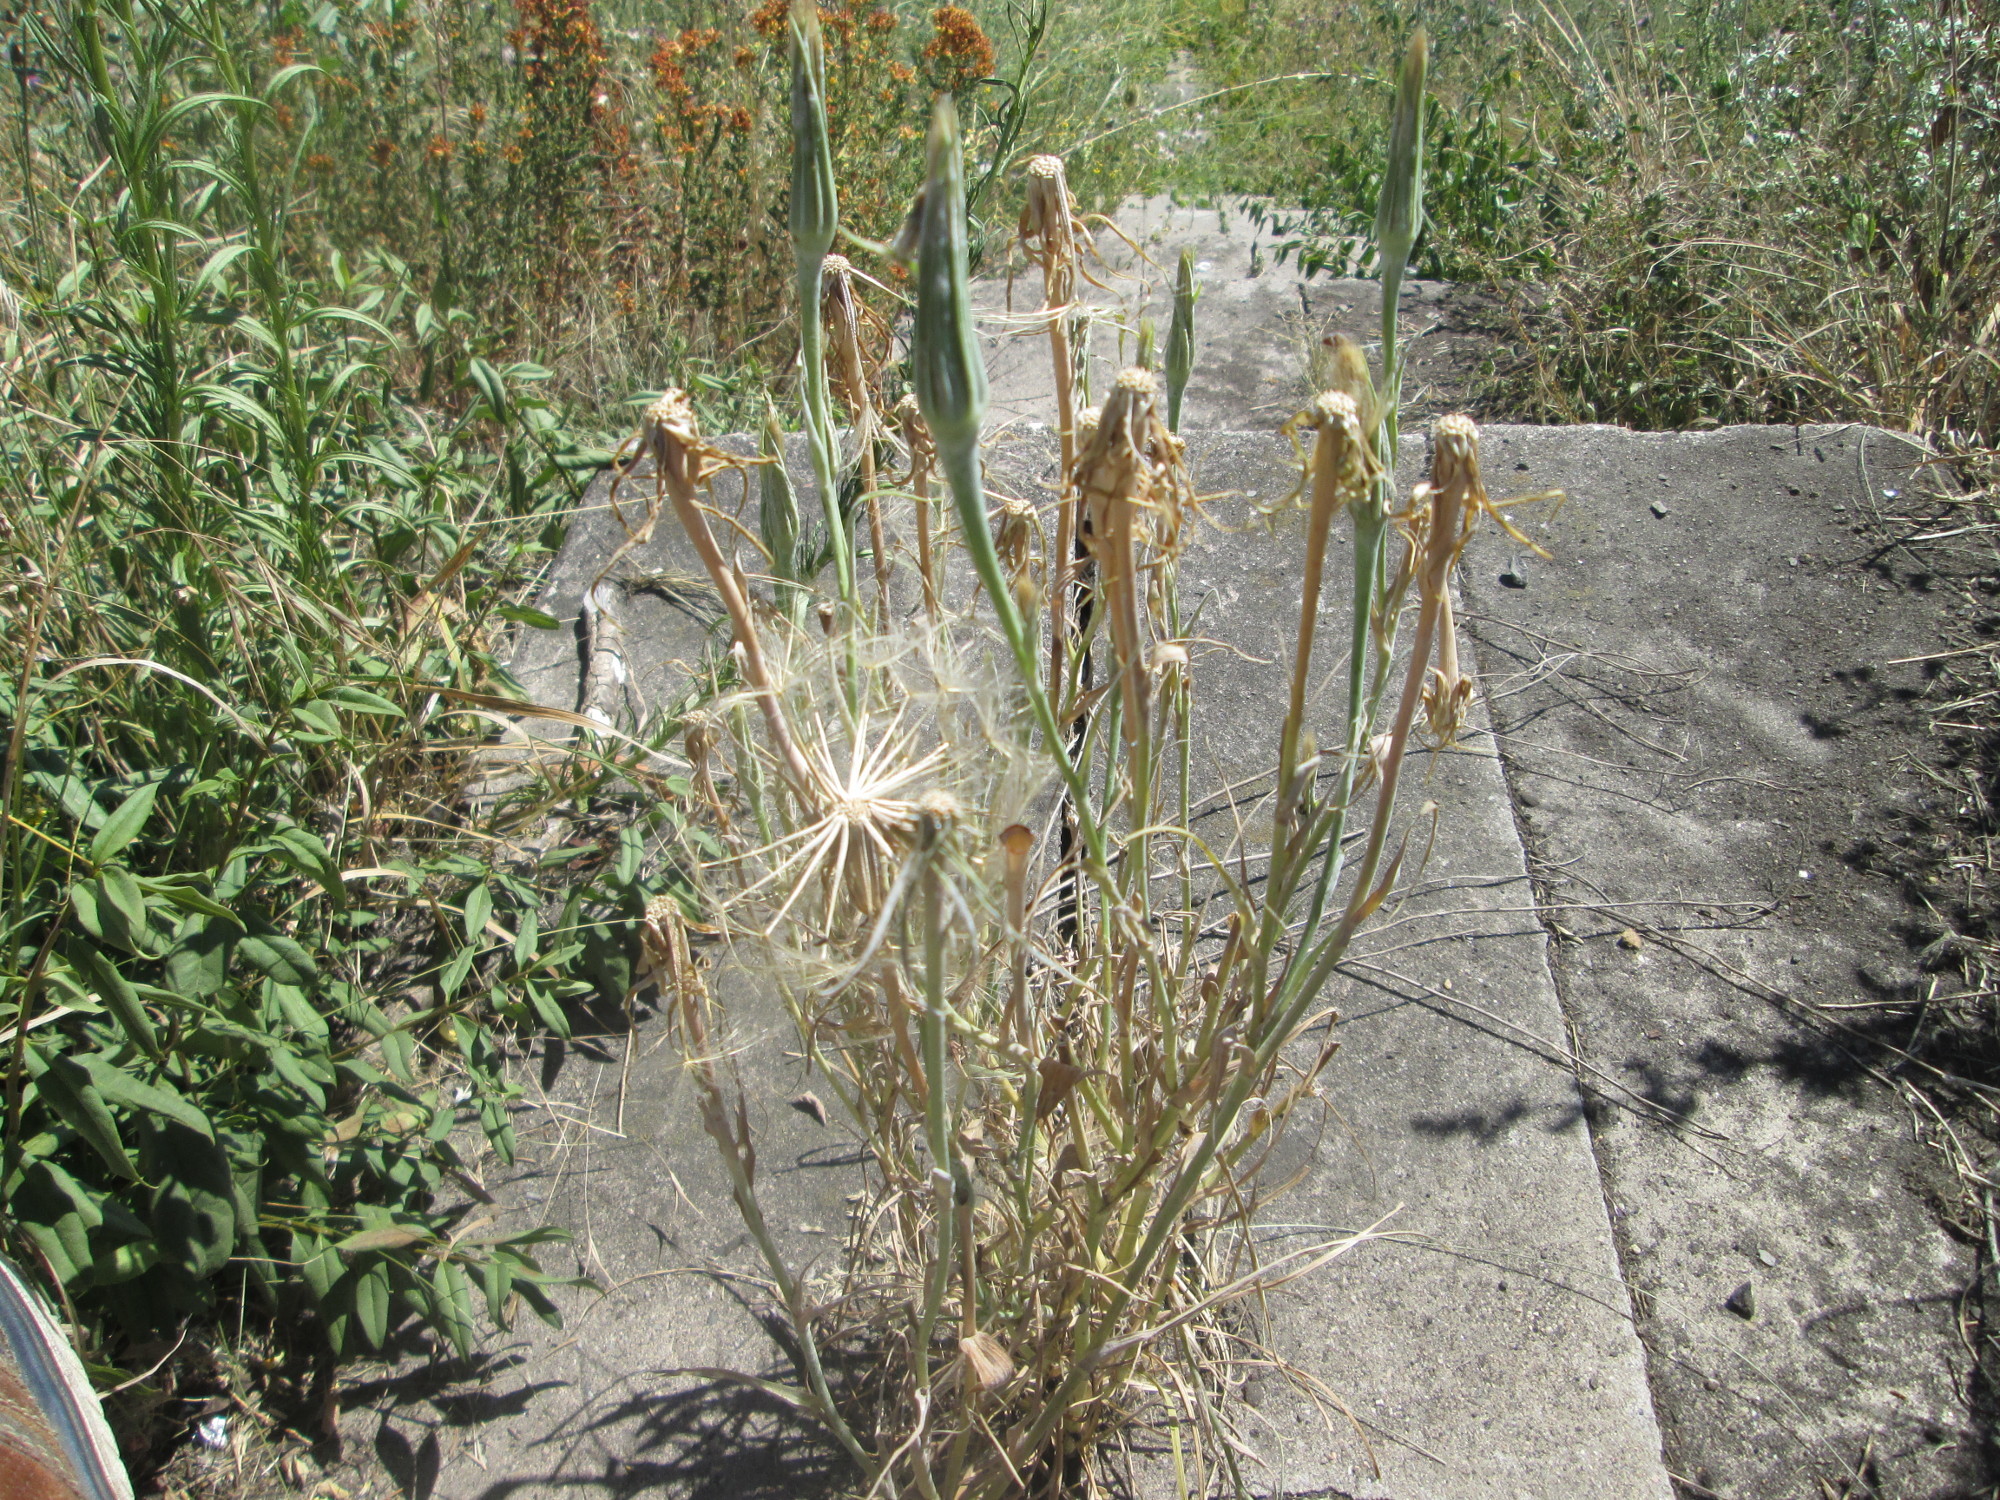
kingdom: Plantae
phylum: Tracheophyta
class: Magnoliopsida
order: Asterales
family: Asteraceae
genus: Tragopogon
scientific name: Tragopogon dubius
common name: Yellow salsify
